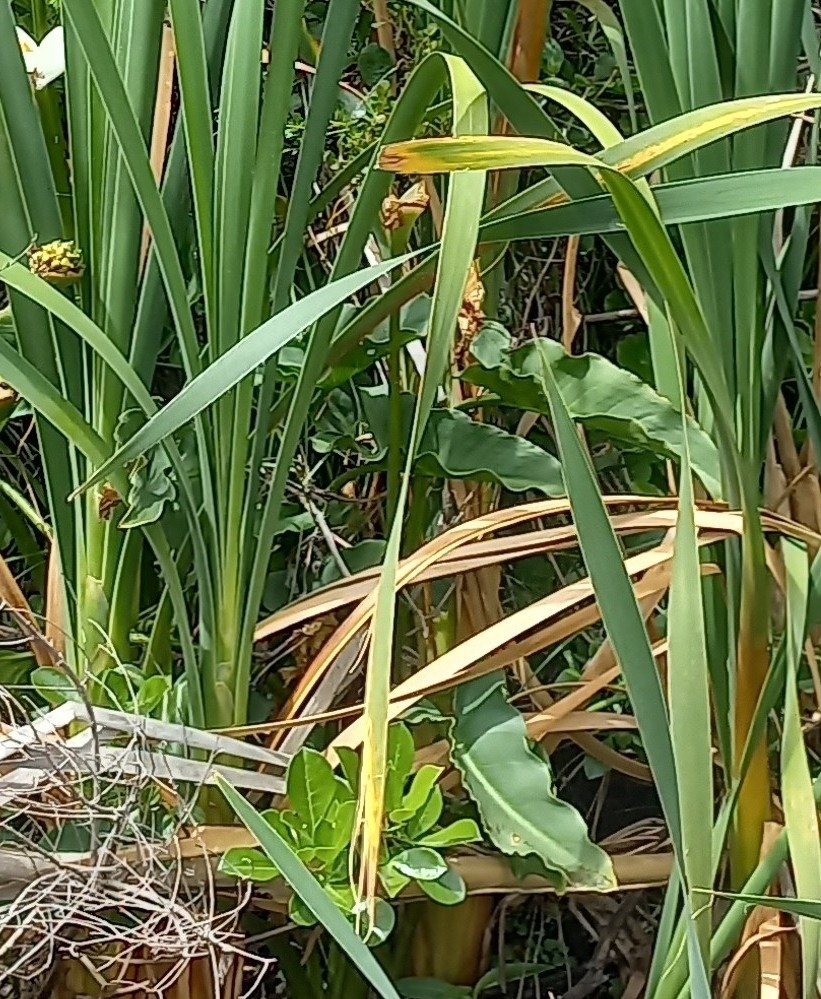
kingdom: Plantae
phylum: Tracheophyta
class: Liliopsida
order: Alismatales
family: Araceae
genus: Zantedeschia
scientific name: Zantedeschia aethiopica
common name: Altar-lily
